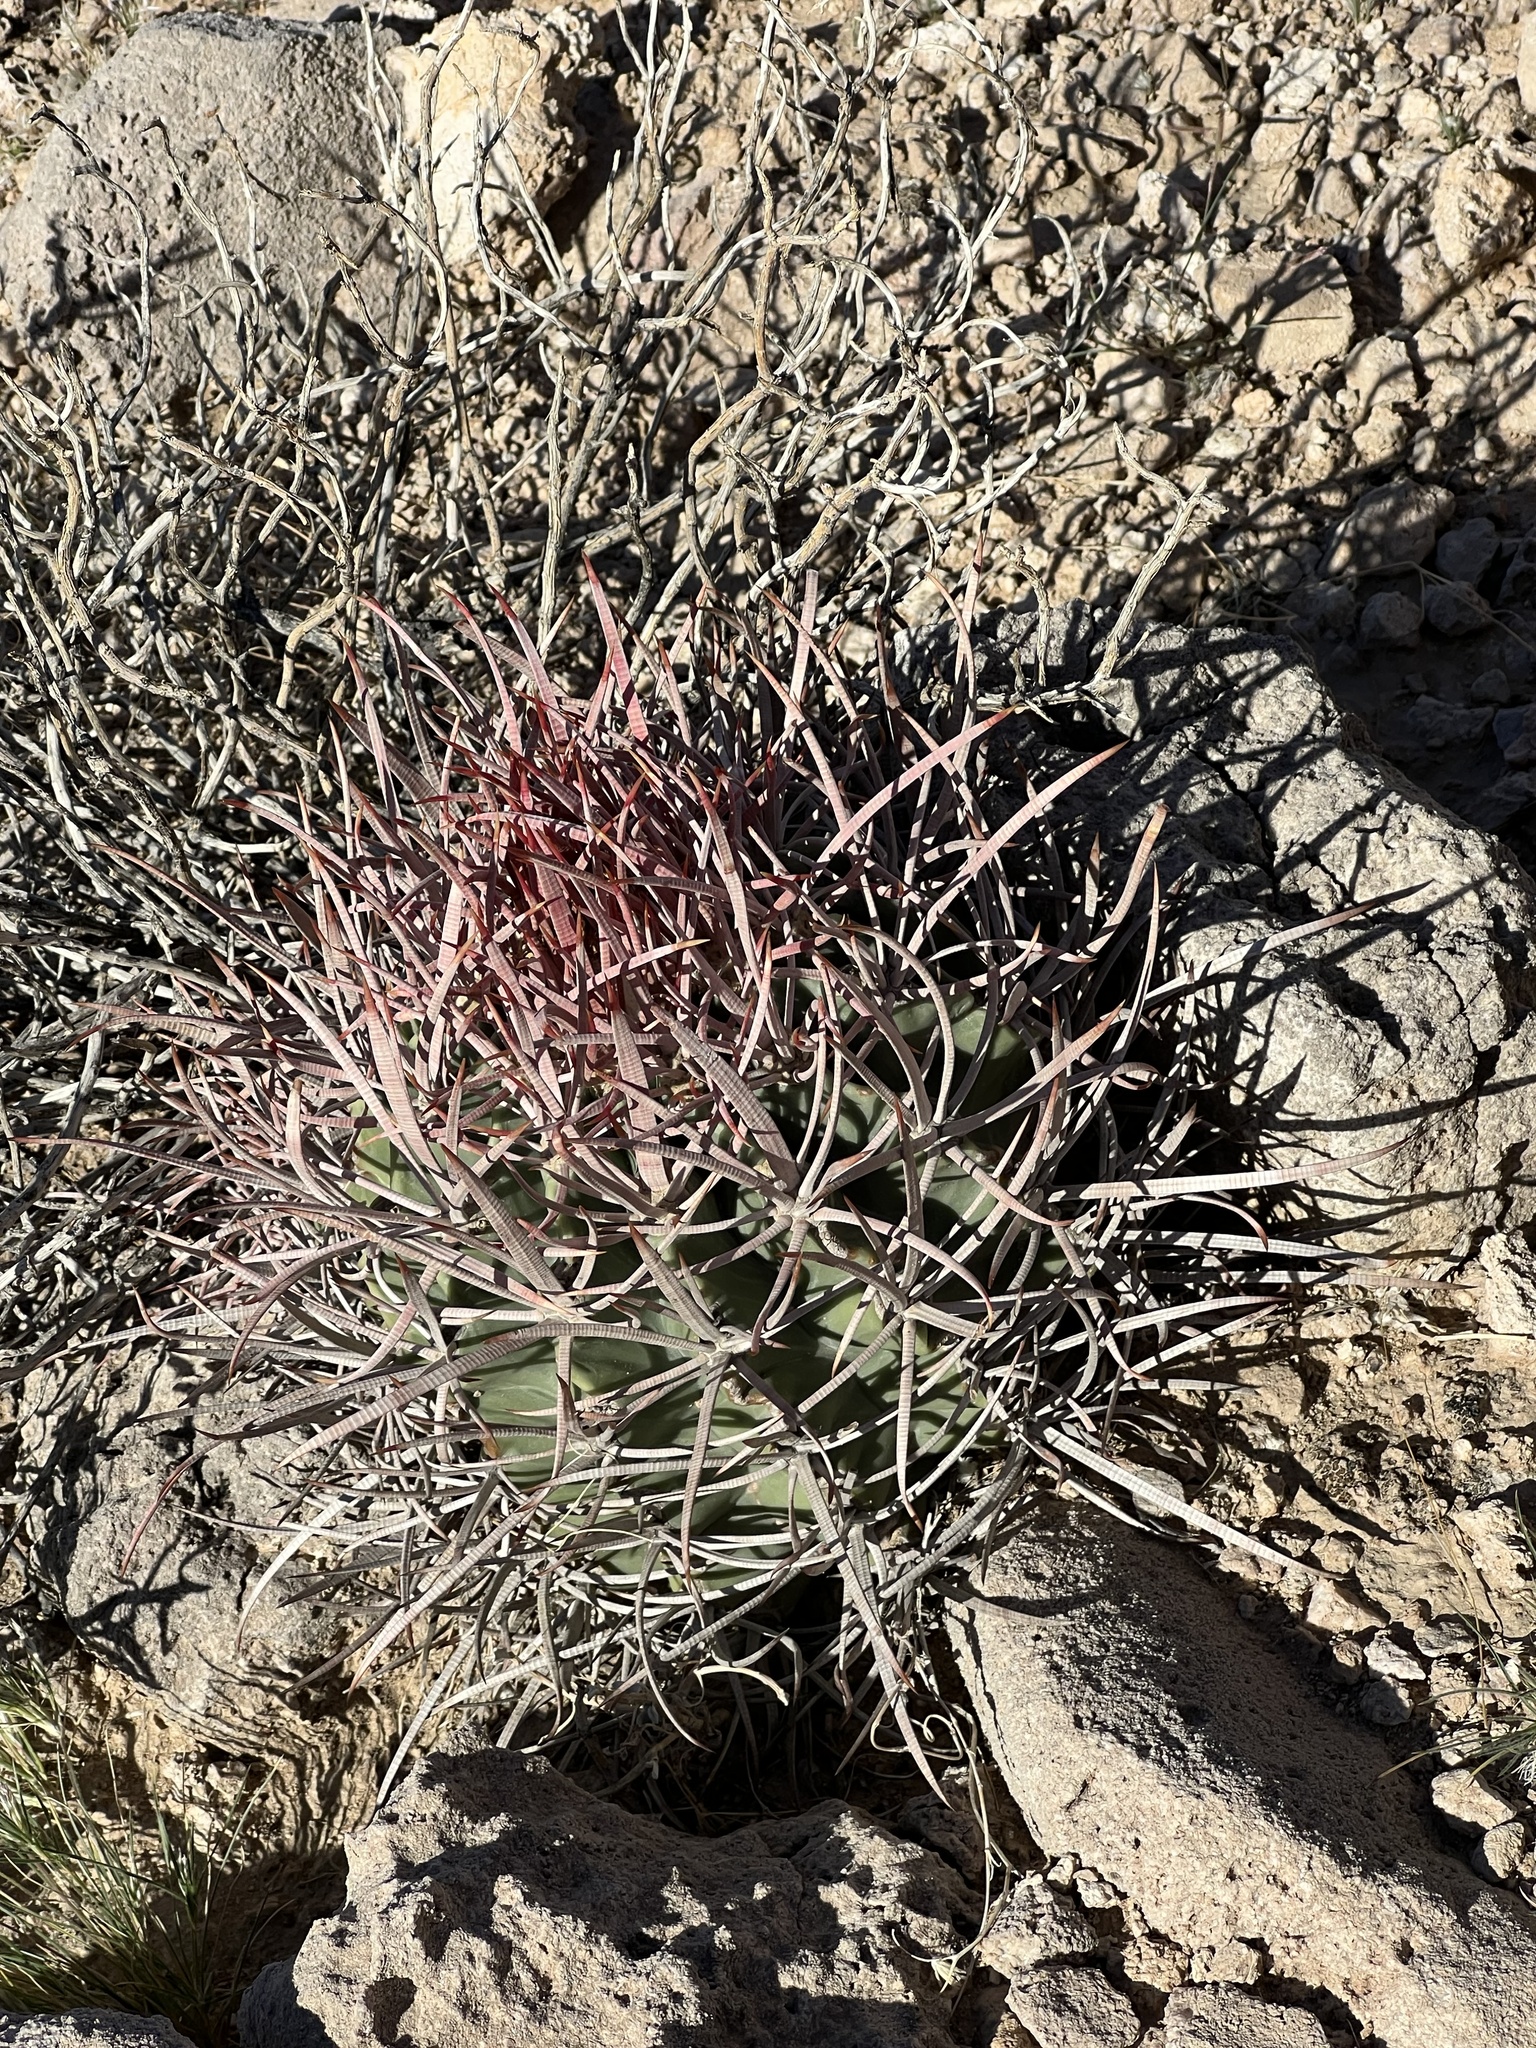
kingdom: Plantae
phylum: Tracheophyta
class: Magnoliopsida
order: Caryophyllales
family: Cactaceae
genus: Echinocactus
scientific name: Echinocactus polycephalus
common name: Cottontop cactus
